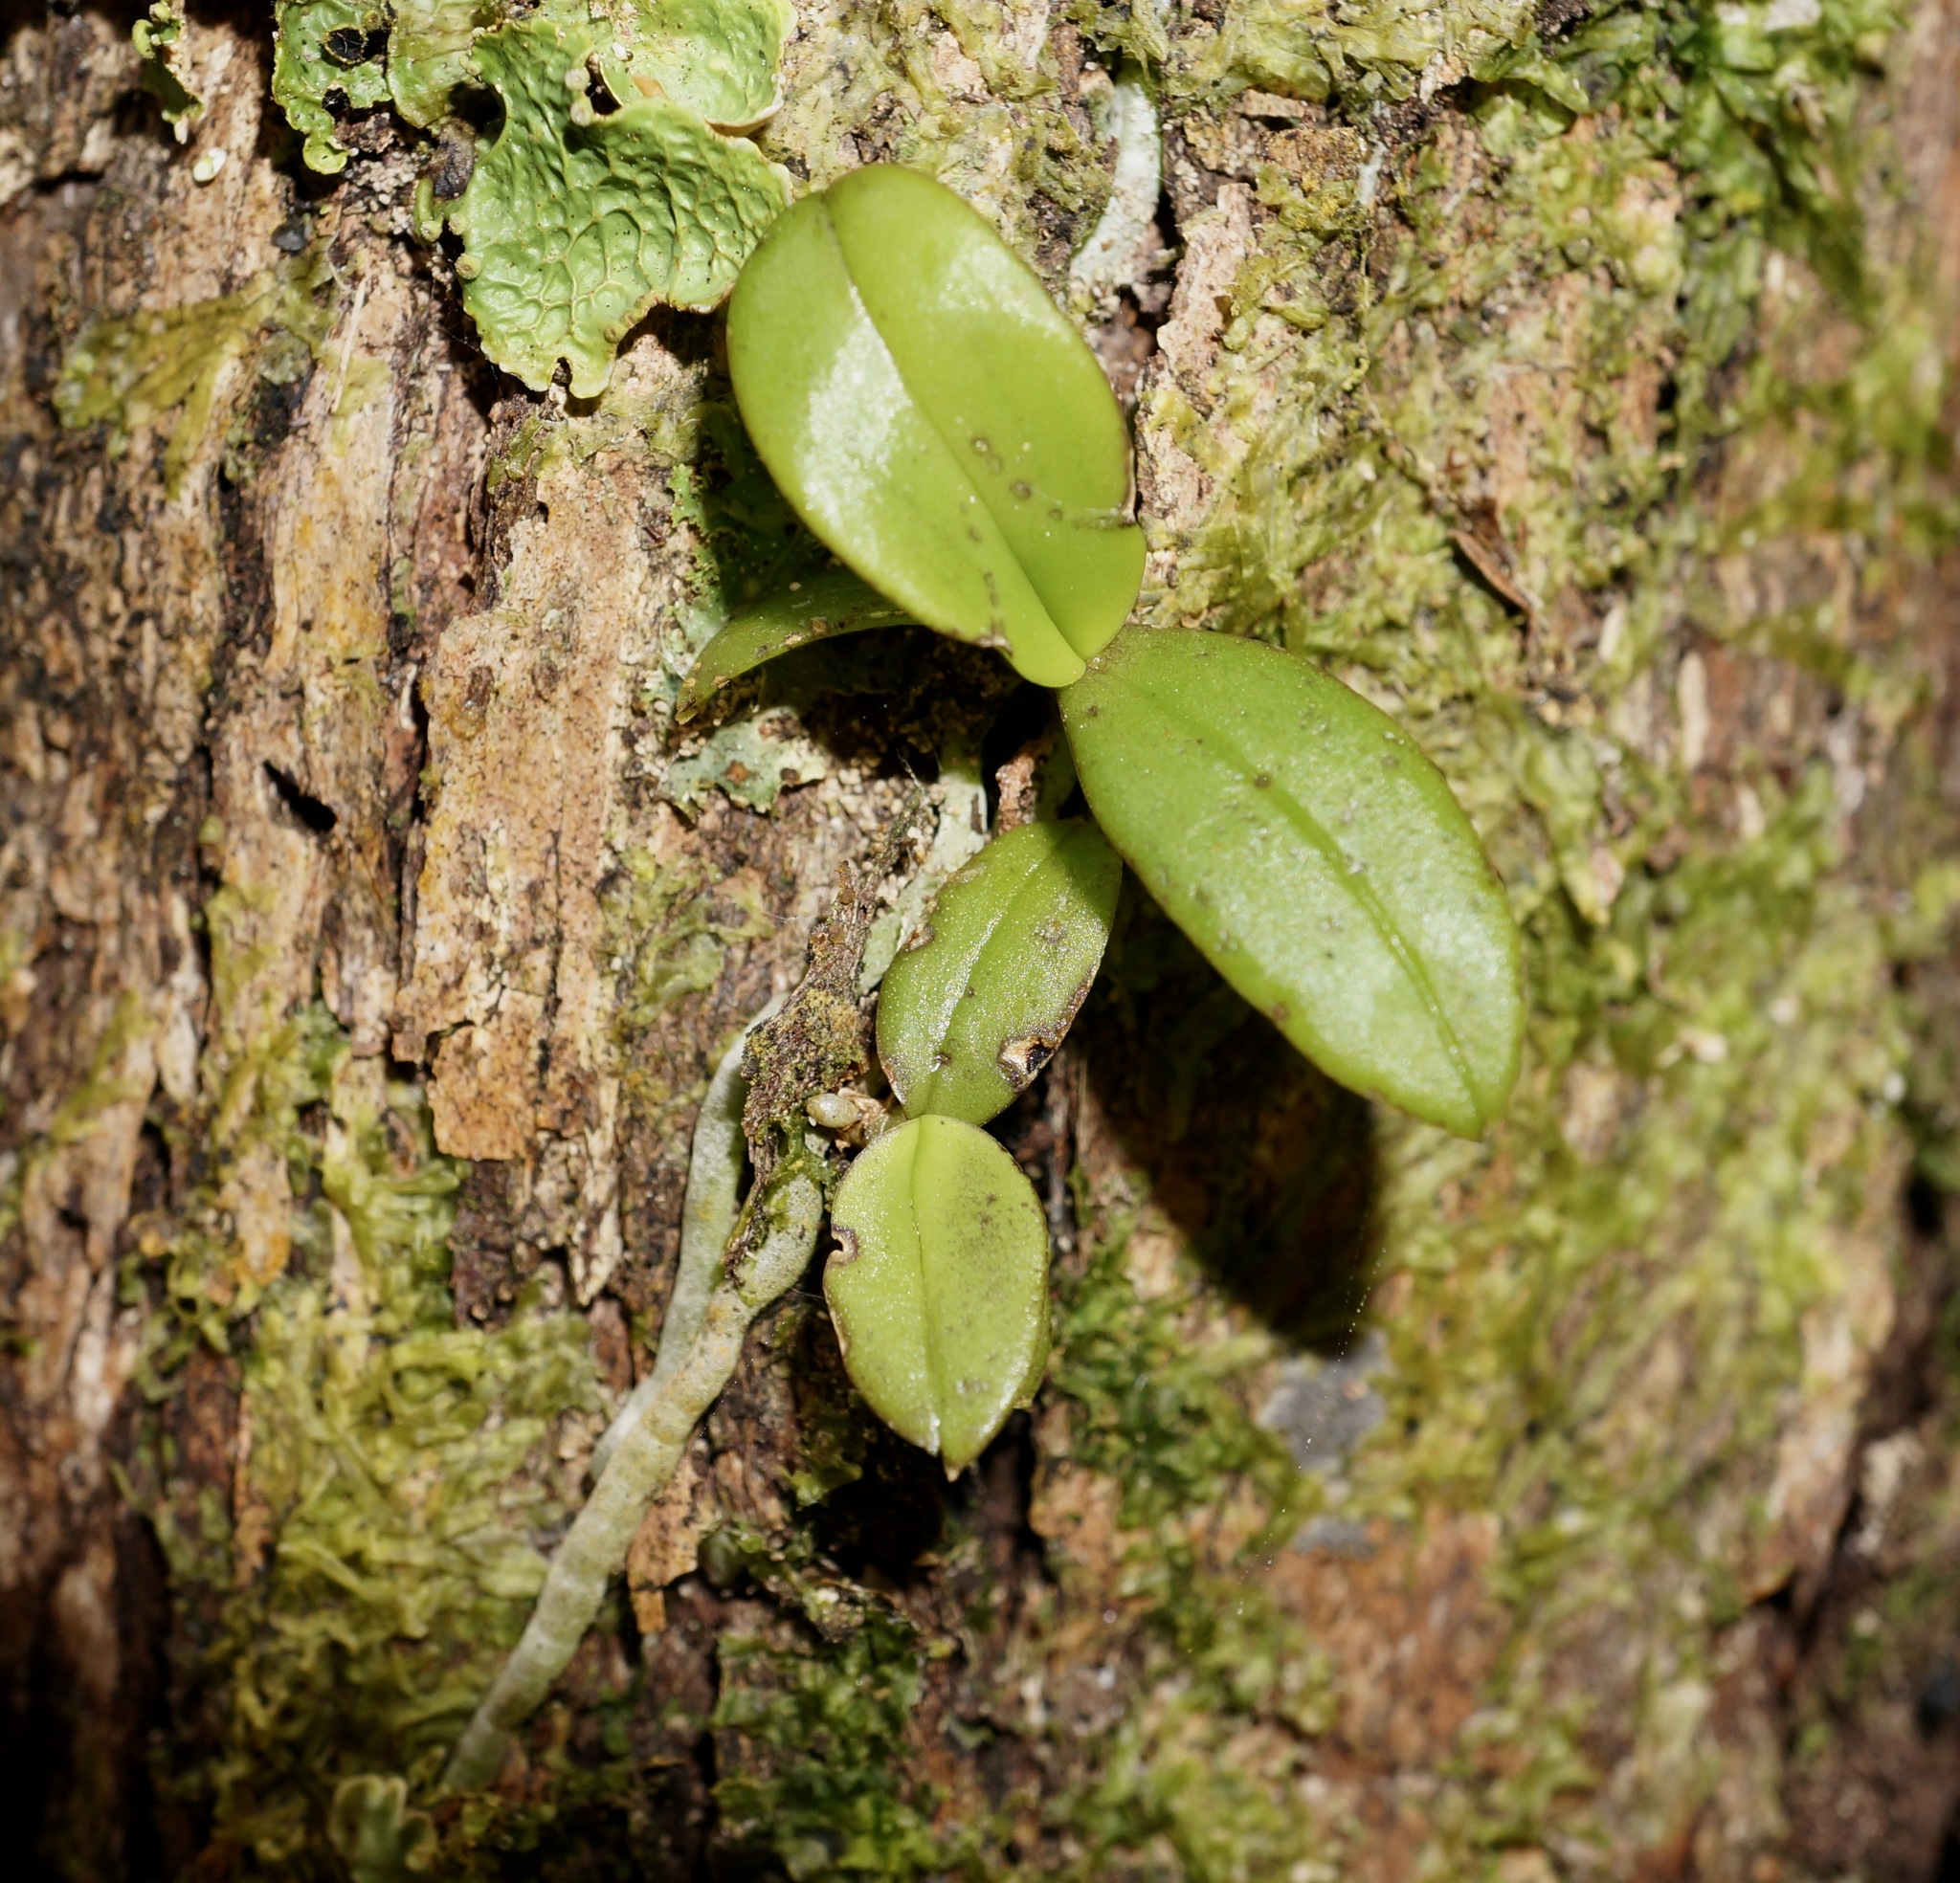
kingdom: Plantae
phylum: Tracheophyta
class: Liliopsida
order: Asparagales
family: Orchidaceae
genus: Drymoanthus
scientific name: Drymoanthus adversus
